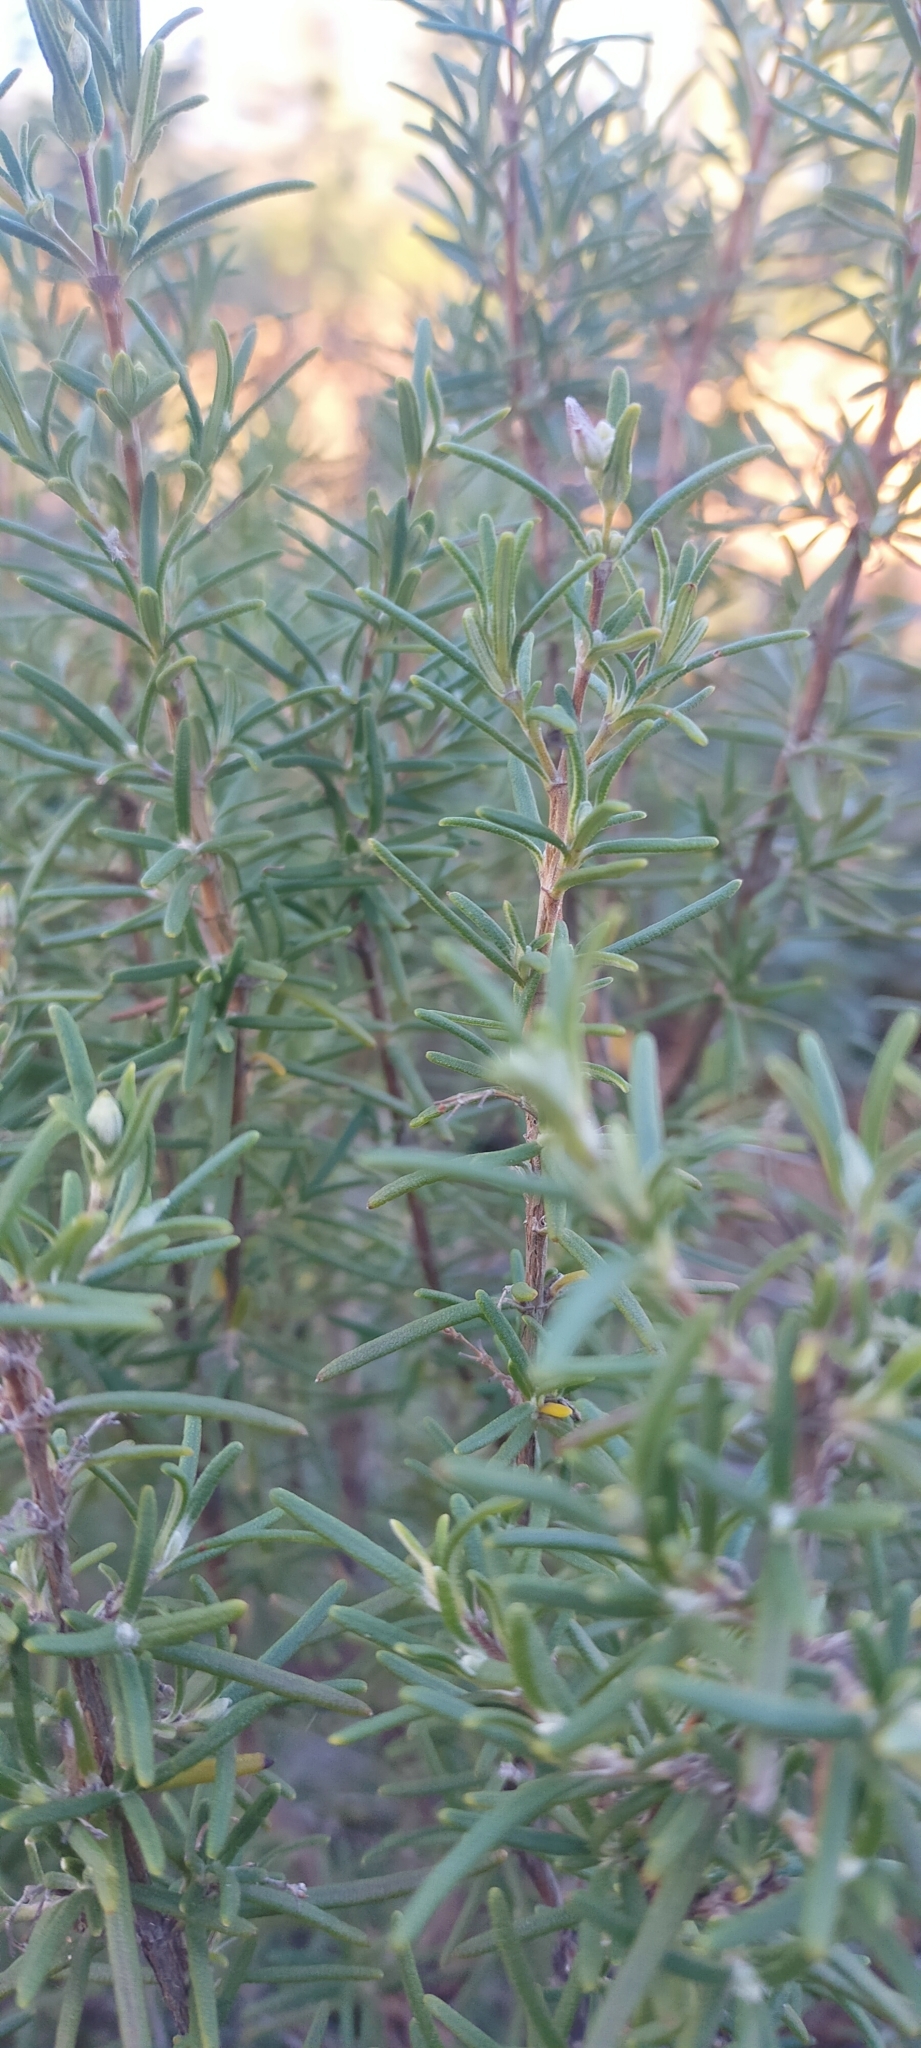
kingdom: Plantae
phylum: Tracheophyta
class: Magnoliopsida
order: Lamiales
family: Lamiaceae
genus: Salvia
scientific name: Salvia rosmarinus
